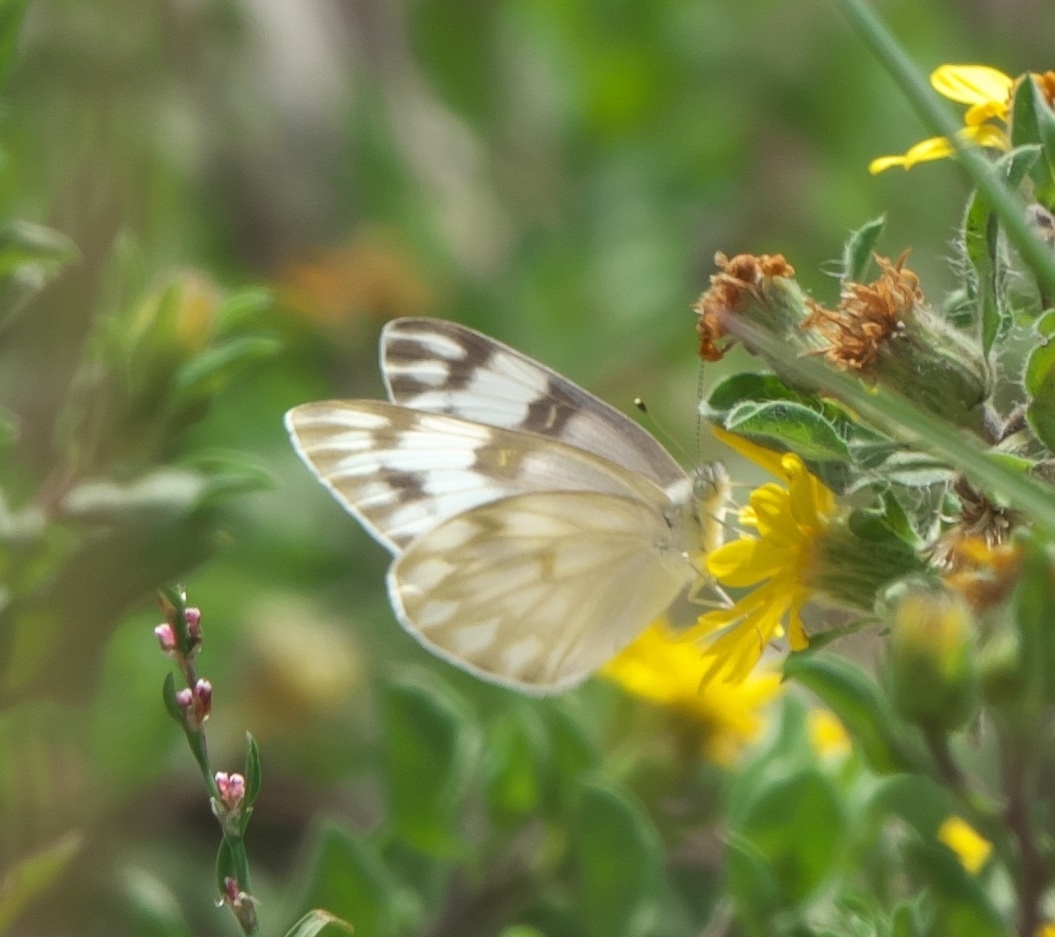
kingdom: Animalia
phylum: Arthropoda
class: Insecta
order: Lepidoptera
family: Pieridae
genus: Pontia
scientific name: Pontia protodice
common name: Checkered white
